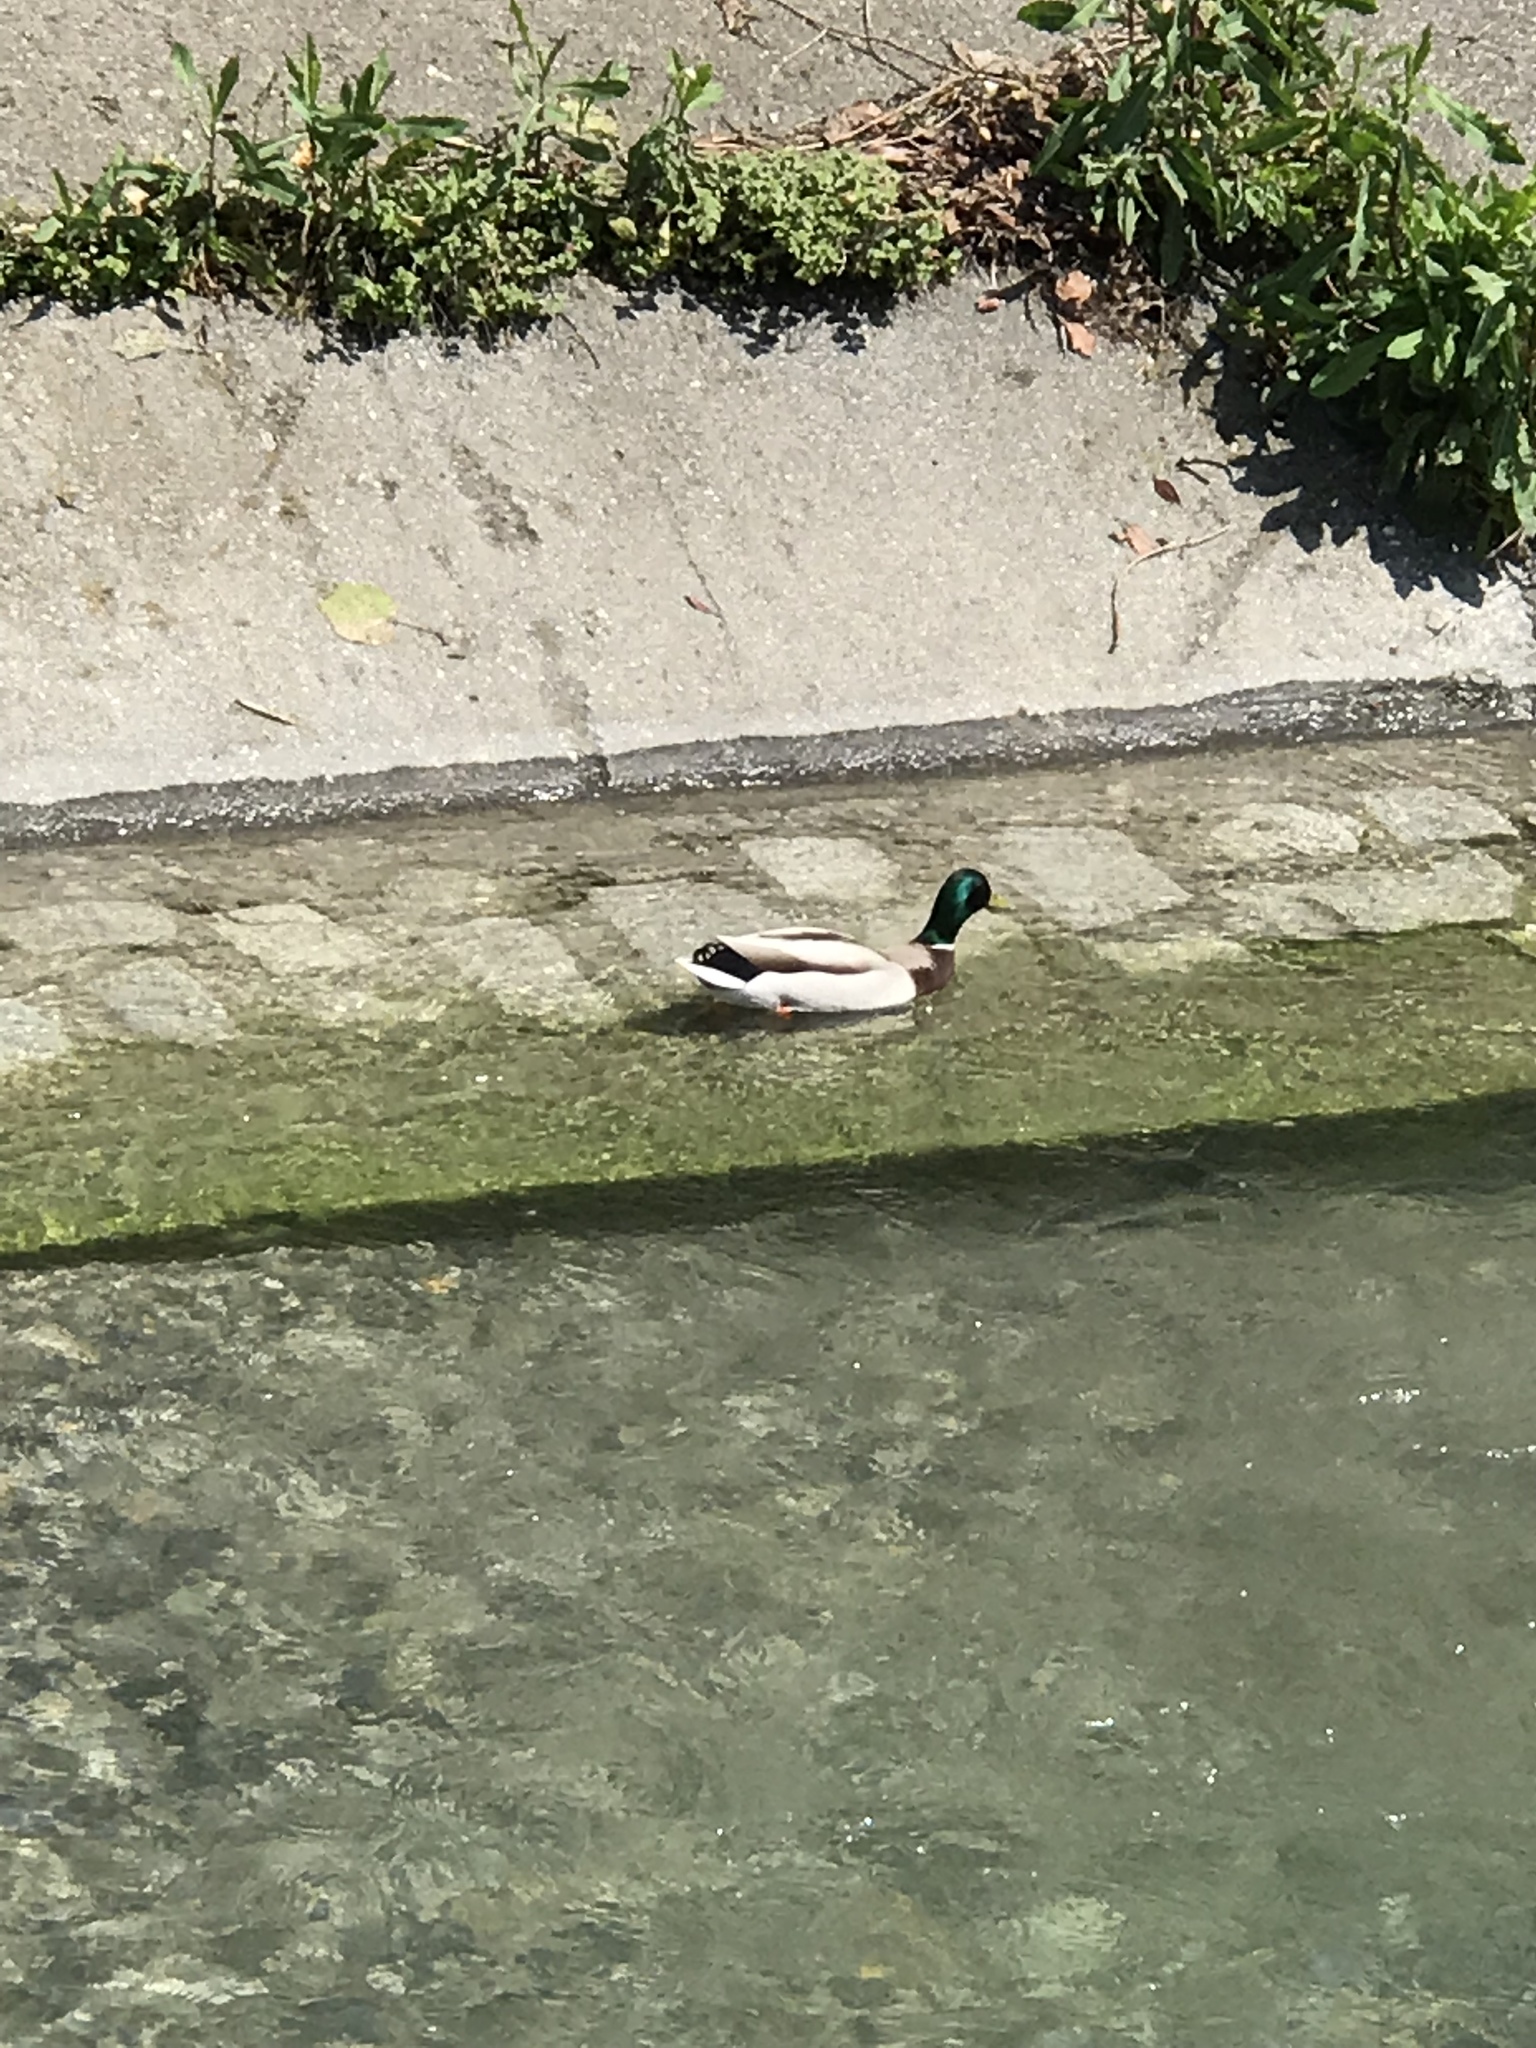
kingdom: Animalia
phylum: Chordata
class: Aves
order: Anseriformes
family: Anatidae
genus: Anas
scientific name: Anas platyrhynchos
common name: Mallard
